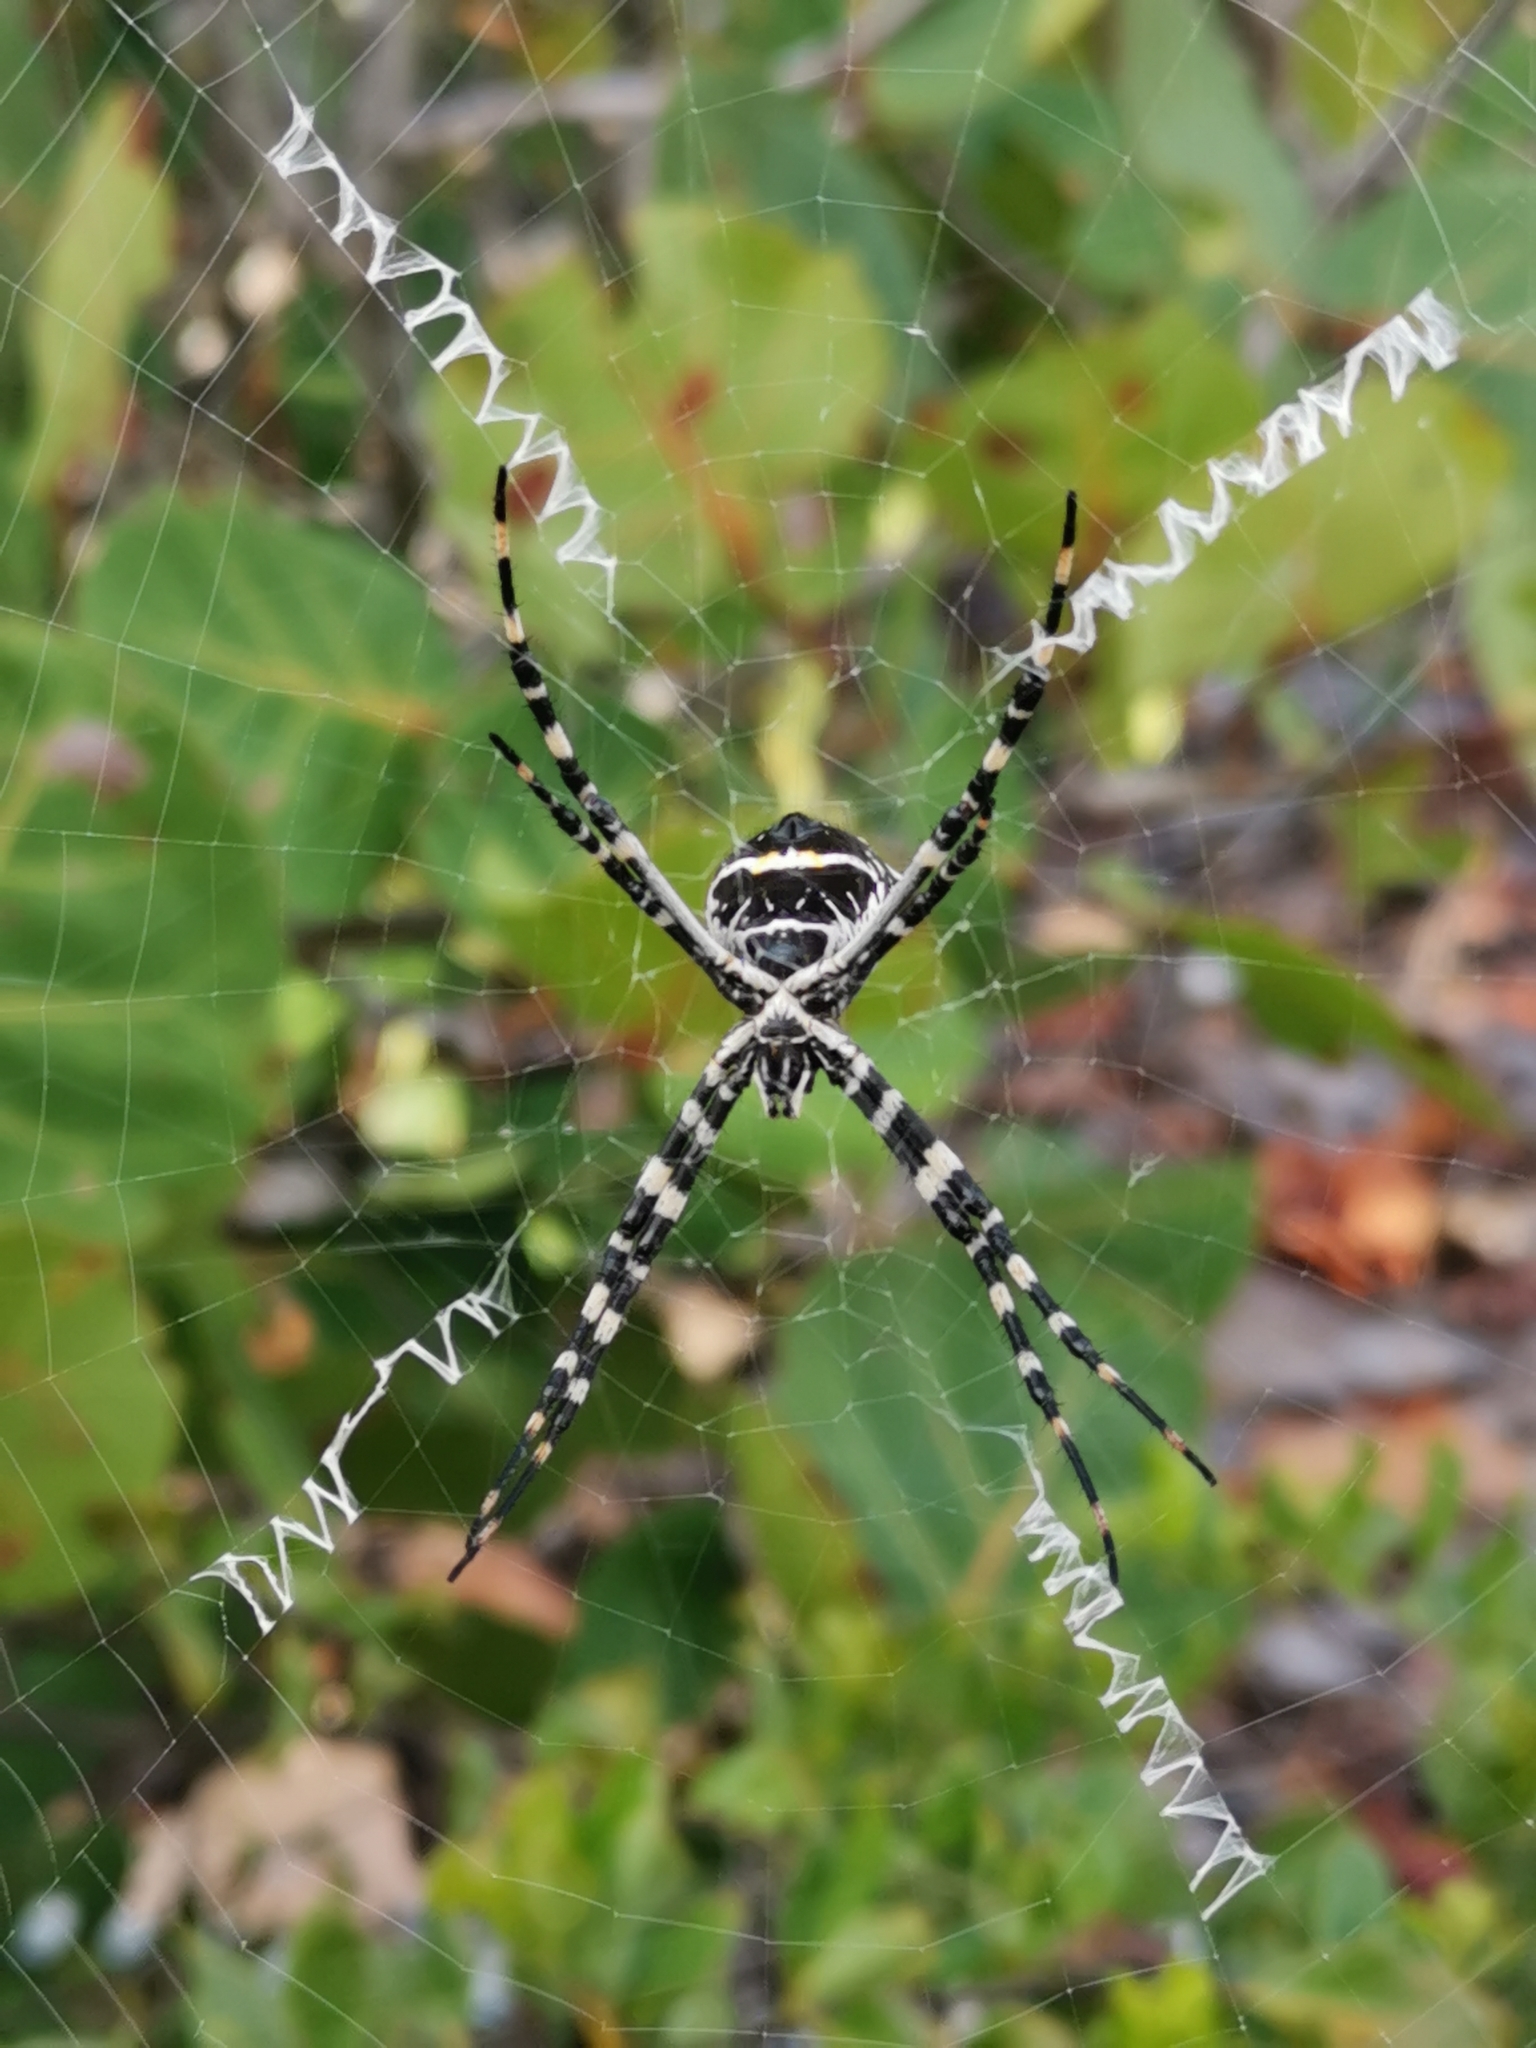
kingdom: Animalia
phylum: Arthropoda
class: Arachnida
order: Araneae
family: Araneidae
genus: Argiope
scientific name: Argiope argentata
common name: Orb weavers
